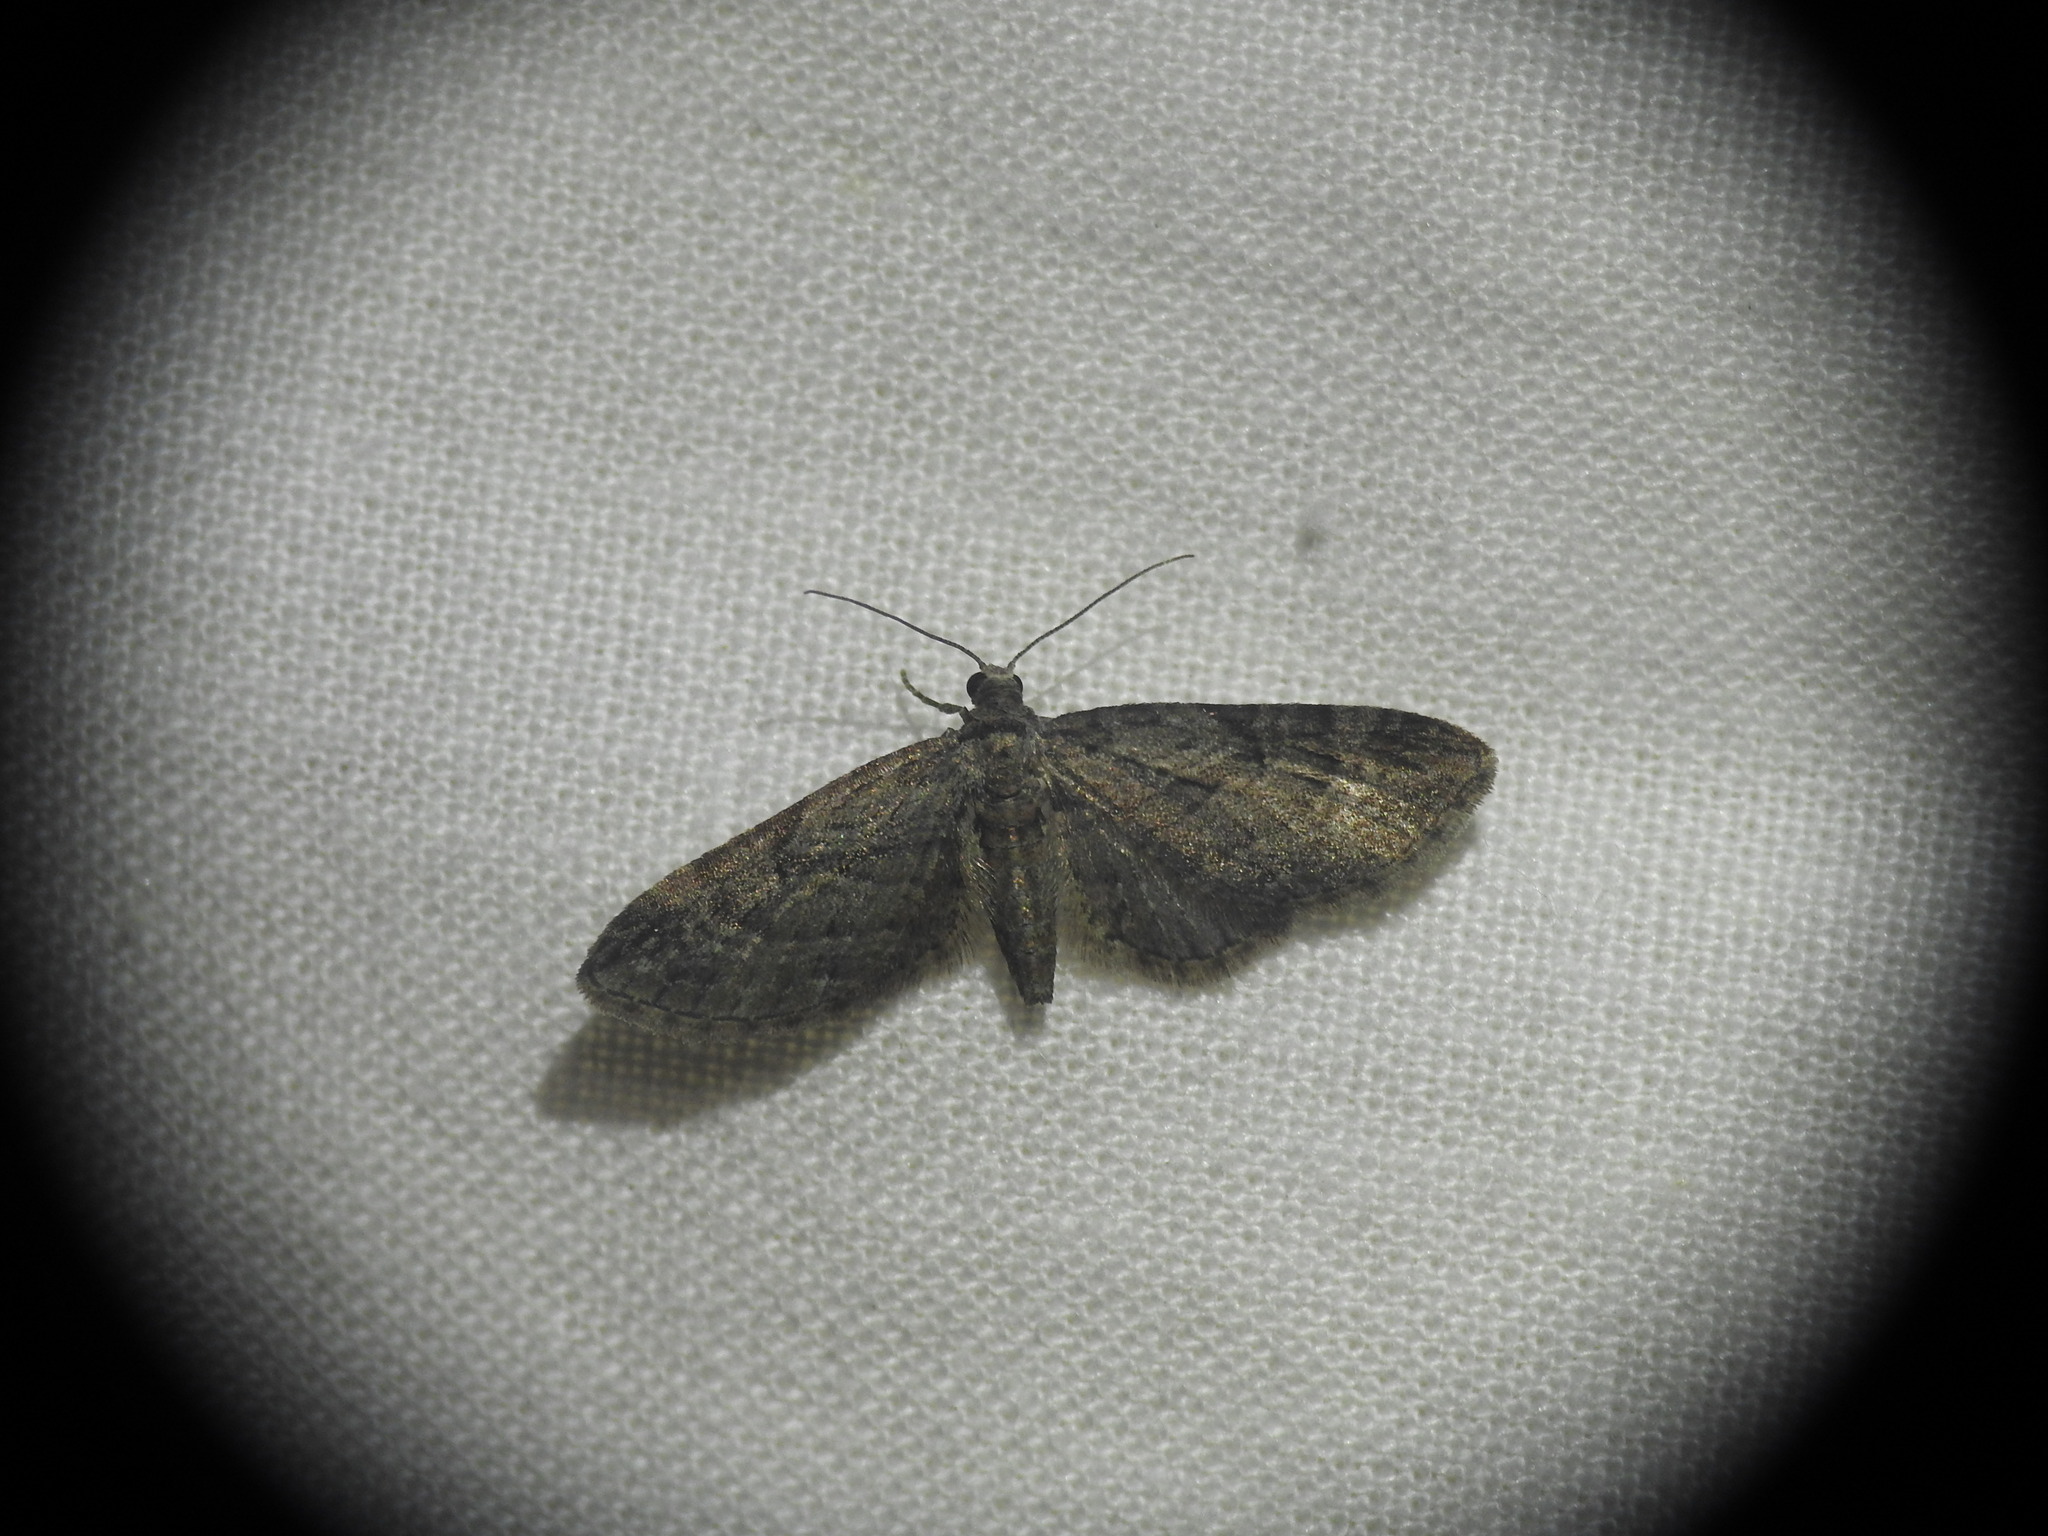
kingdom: Animalia
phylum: Arthropoda
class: Insecta
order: Lepidoptera
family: Geometridae
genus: Eupithecia
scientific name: Eupithecia oxycedrata
